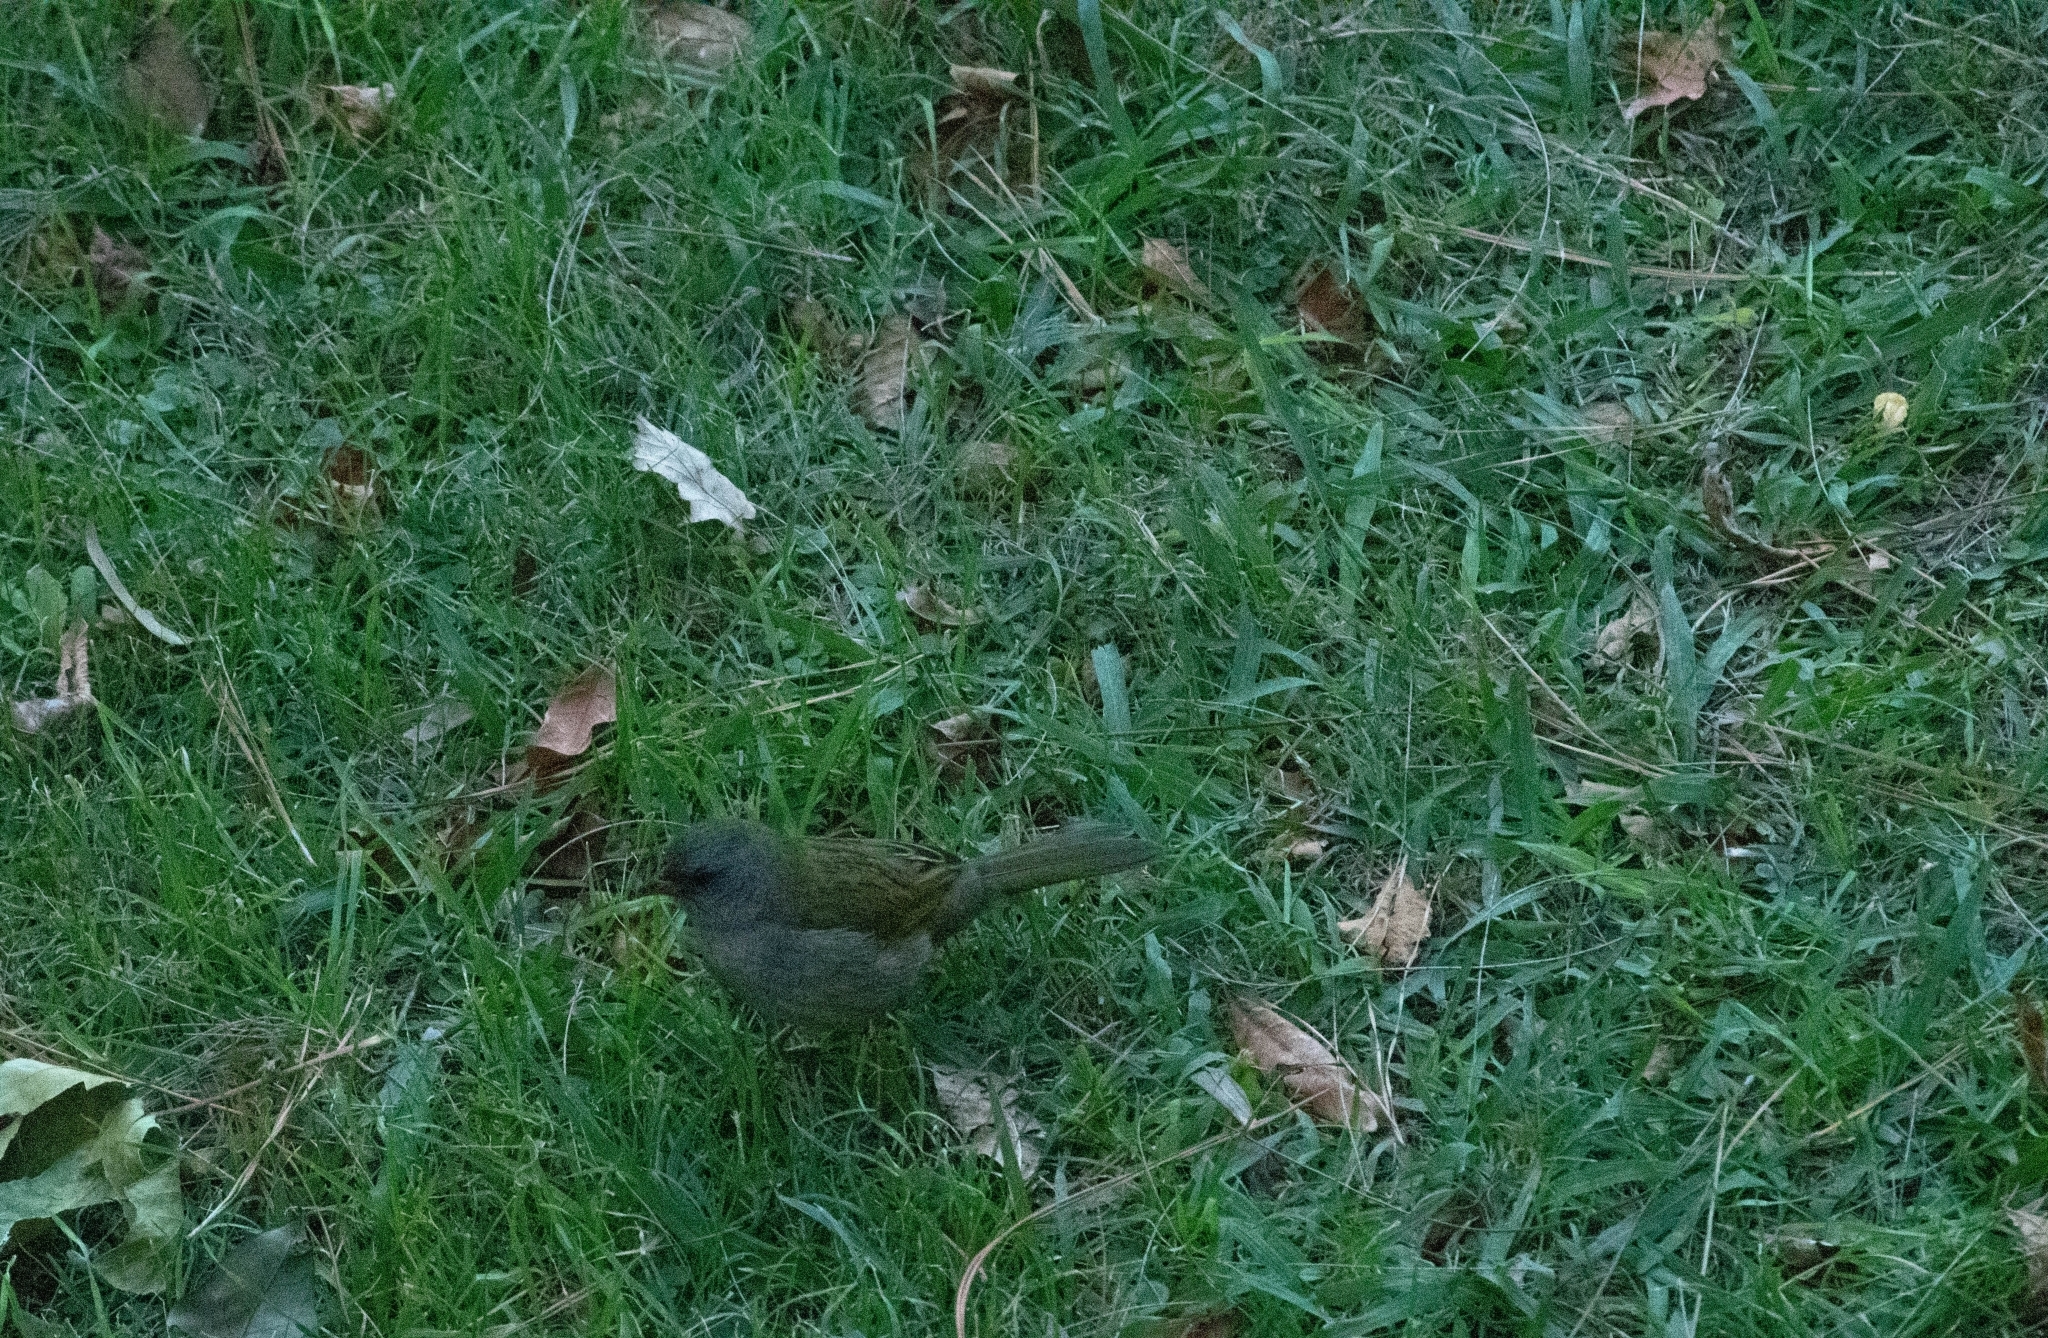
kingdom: Animalia
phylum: Chordata
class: Aves
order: Passeriformes
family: Thraupidae
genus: Embernagra
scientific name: Embernagra platensis
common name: Pampa finch
